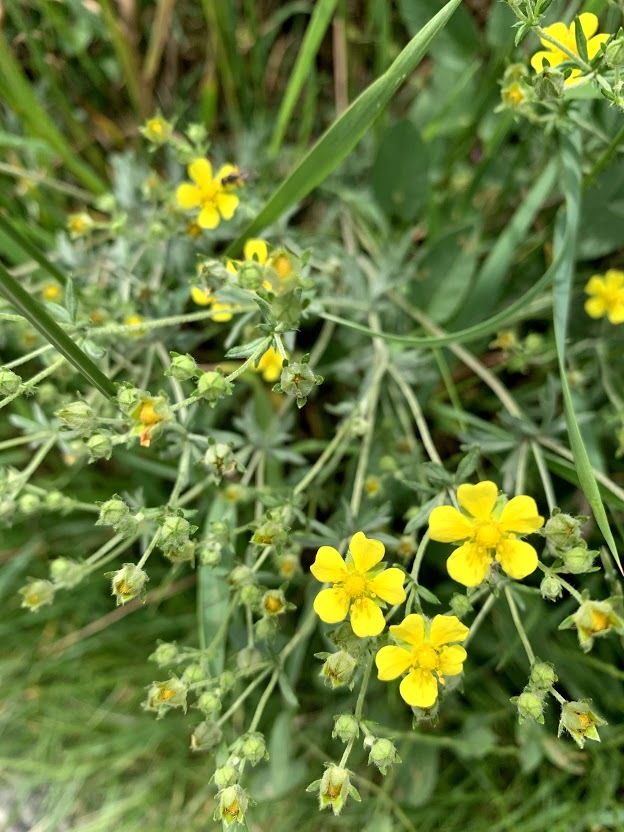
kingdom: Plantae
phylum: Tracheophyta
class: Magnoliopsida
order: Rosales
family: Rosaceae
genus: Potentilla
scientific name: Potentilla argentea
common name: Hoary cinquefoil
